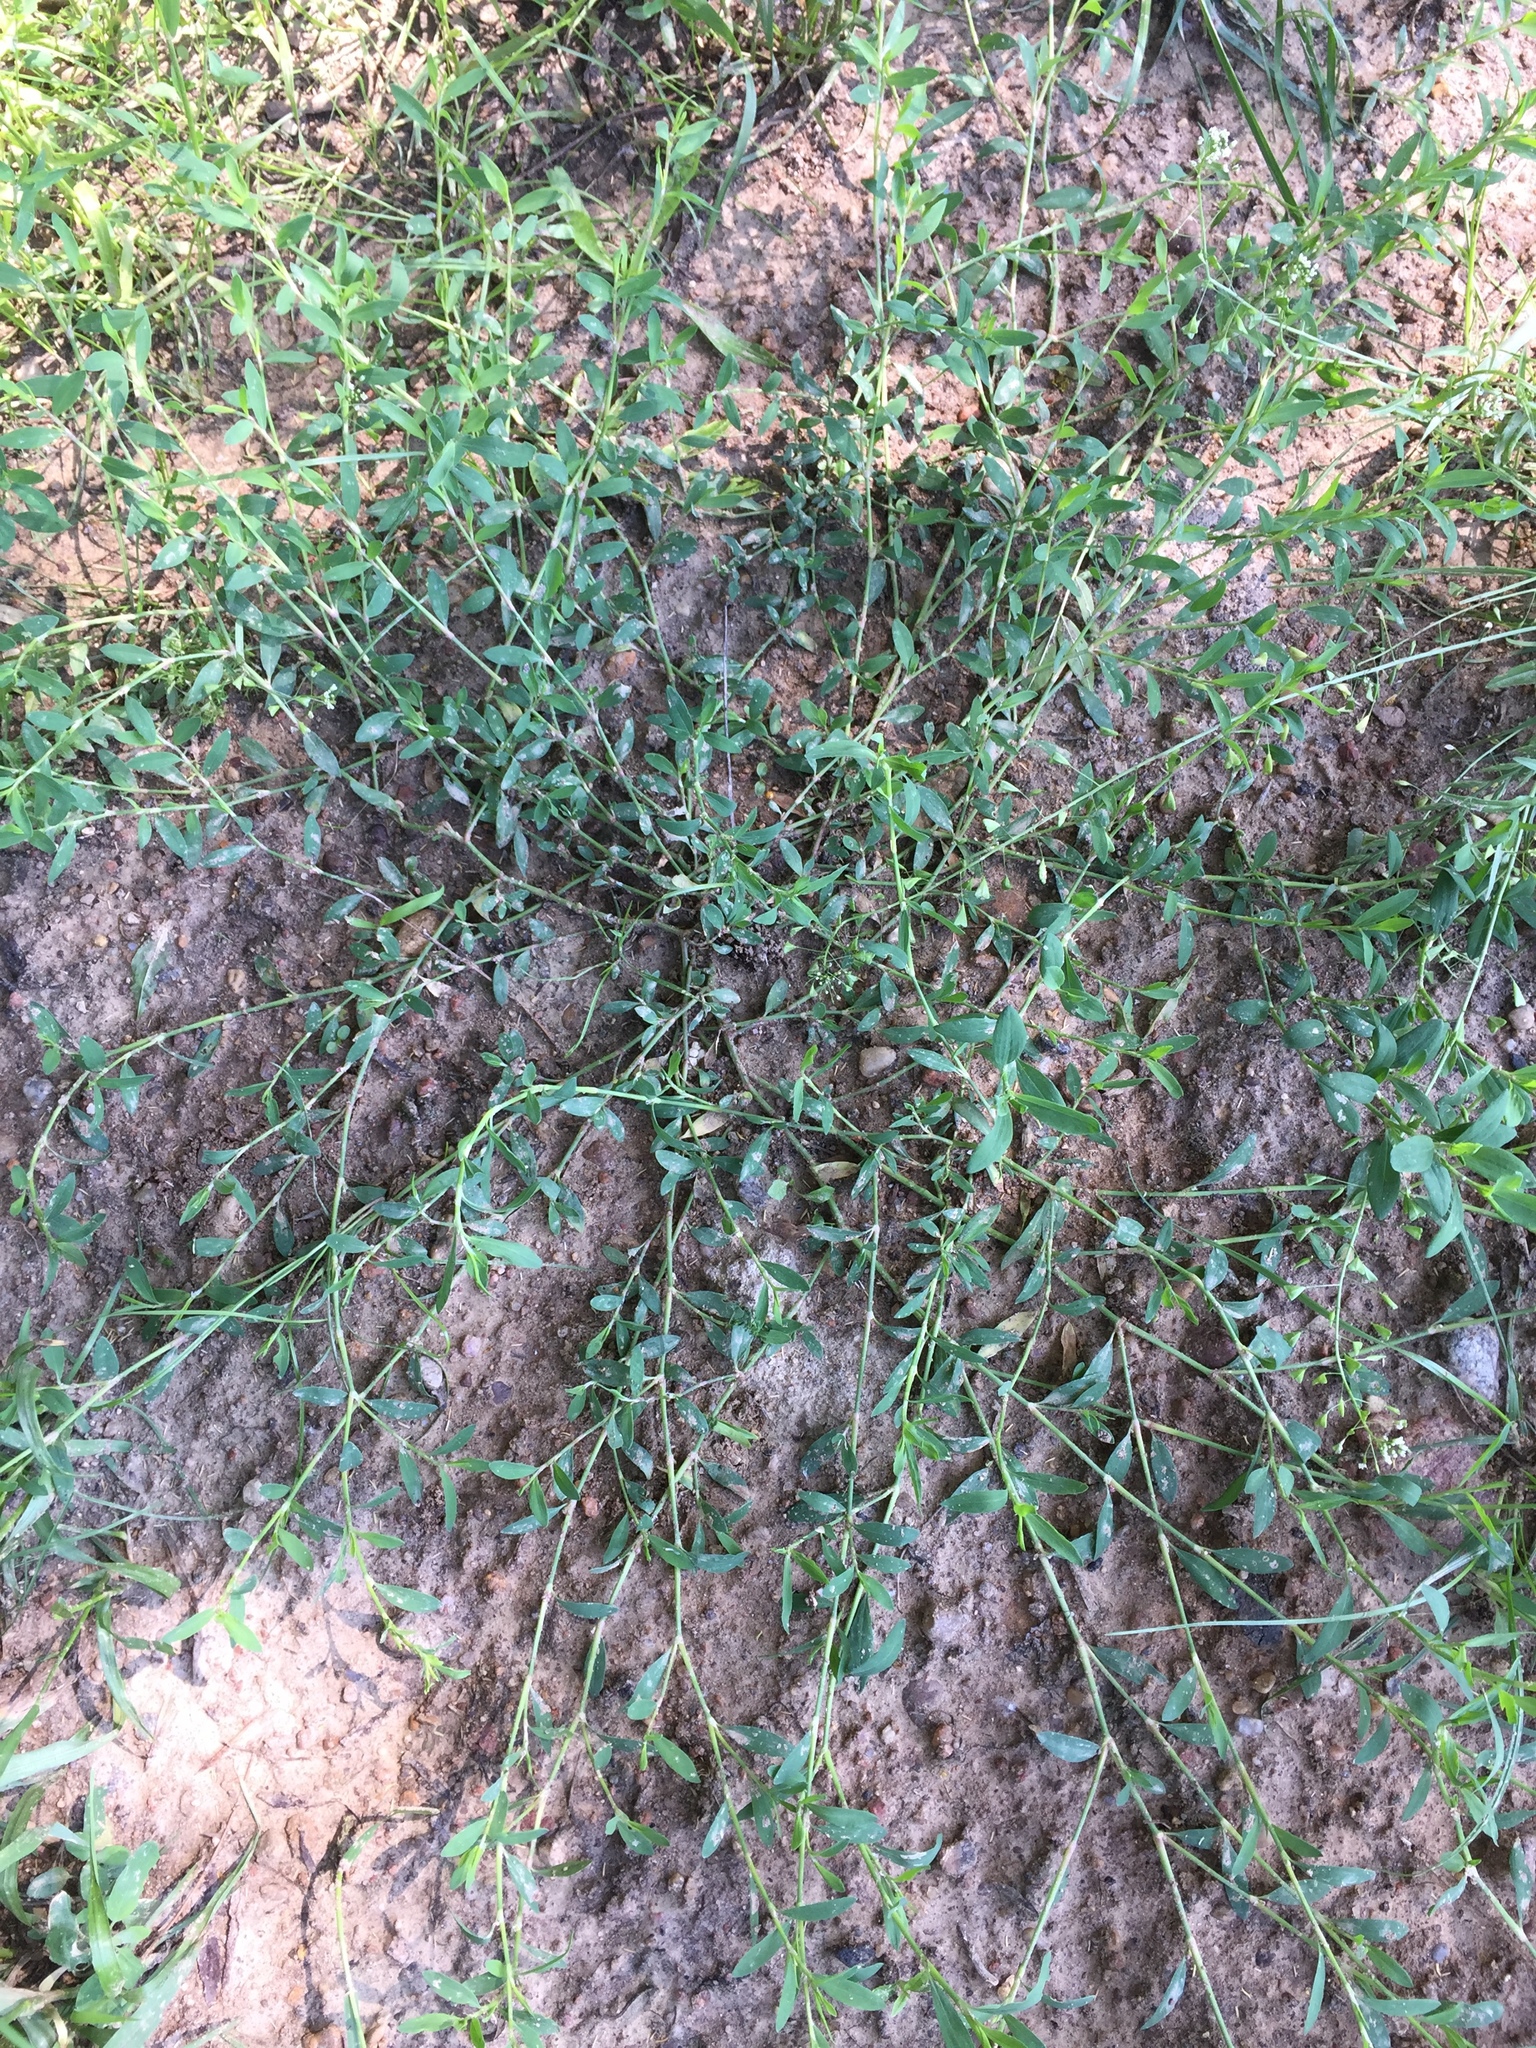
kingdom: Plantae
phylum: Tracheophyta
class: Magnoliopsida
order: Caryophyllales
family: Polygonaceae
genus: Polygonum
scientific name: Polygonum aviculare
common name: Prostrate knotweed
